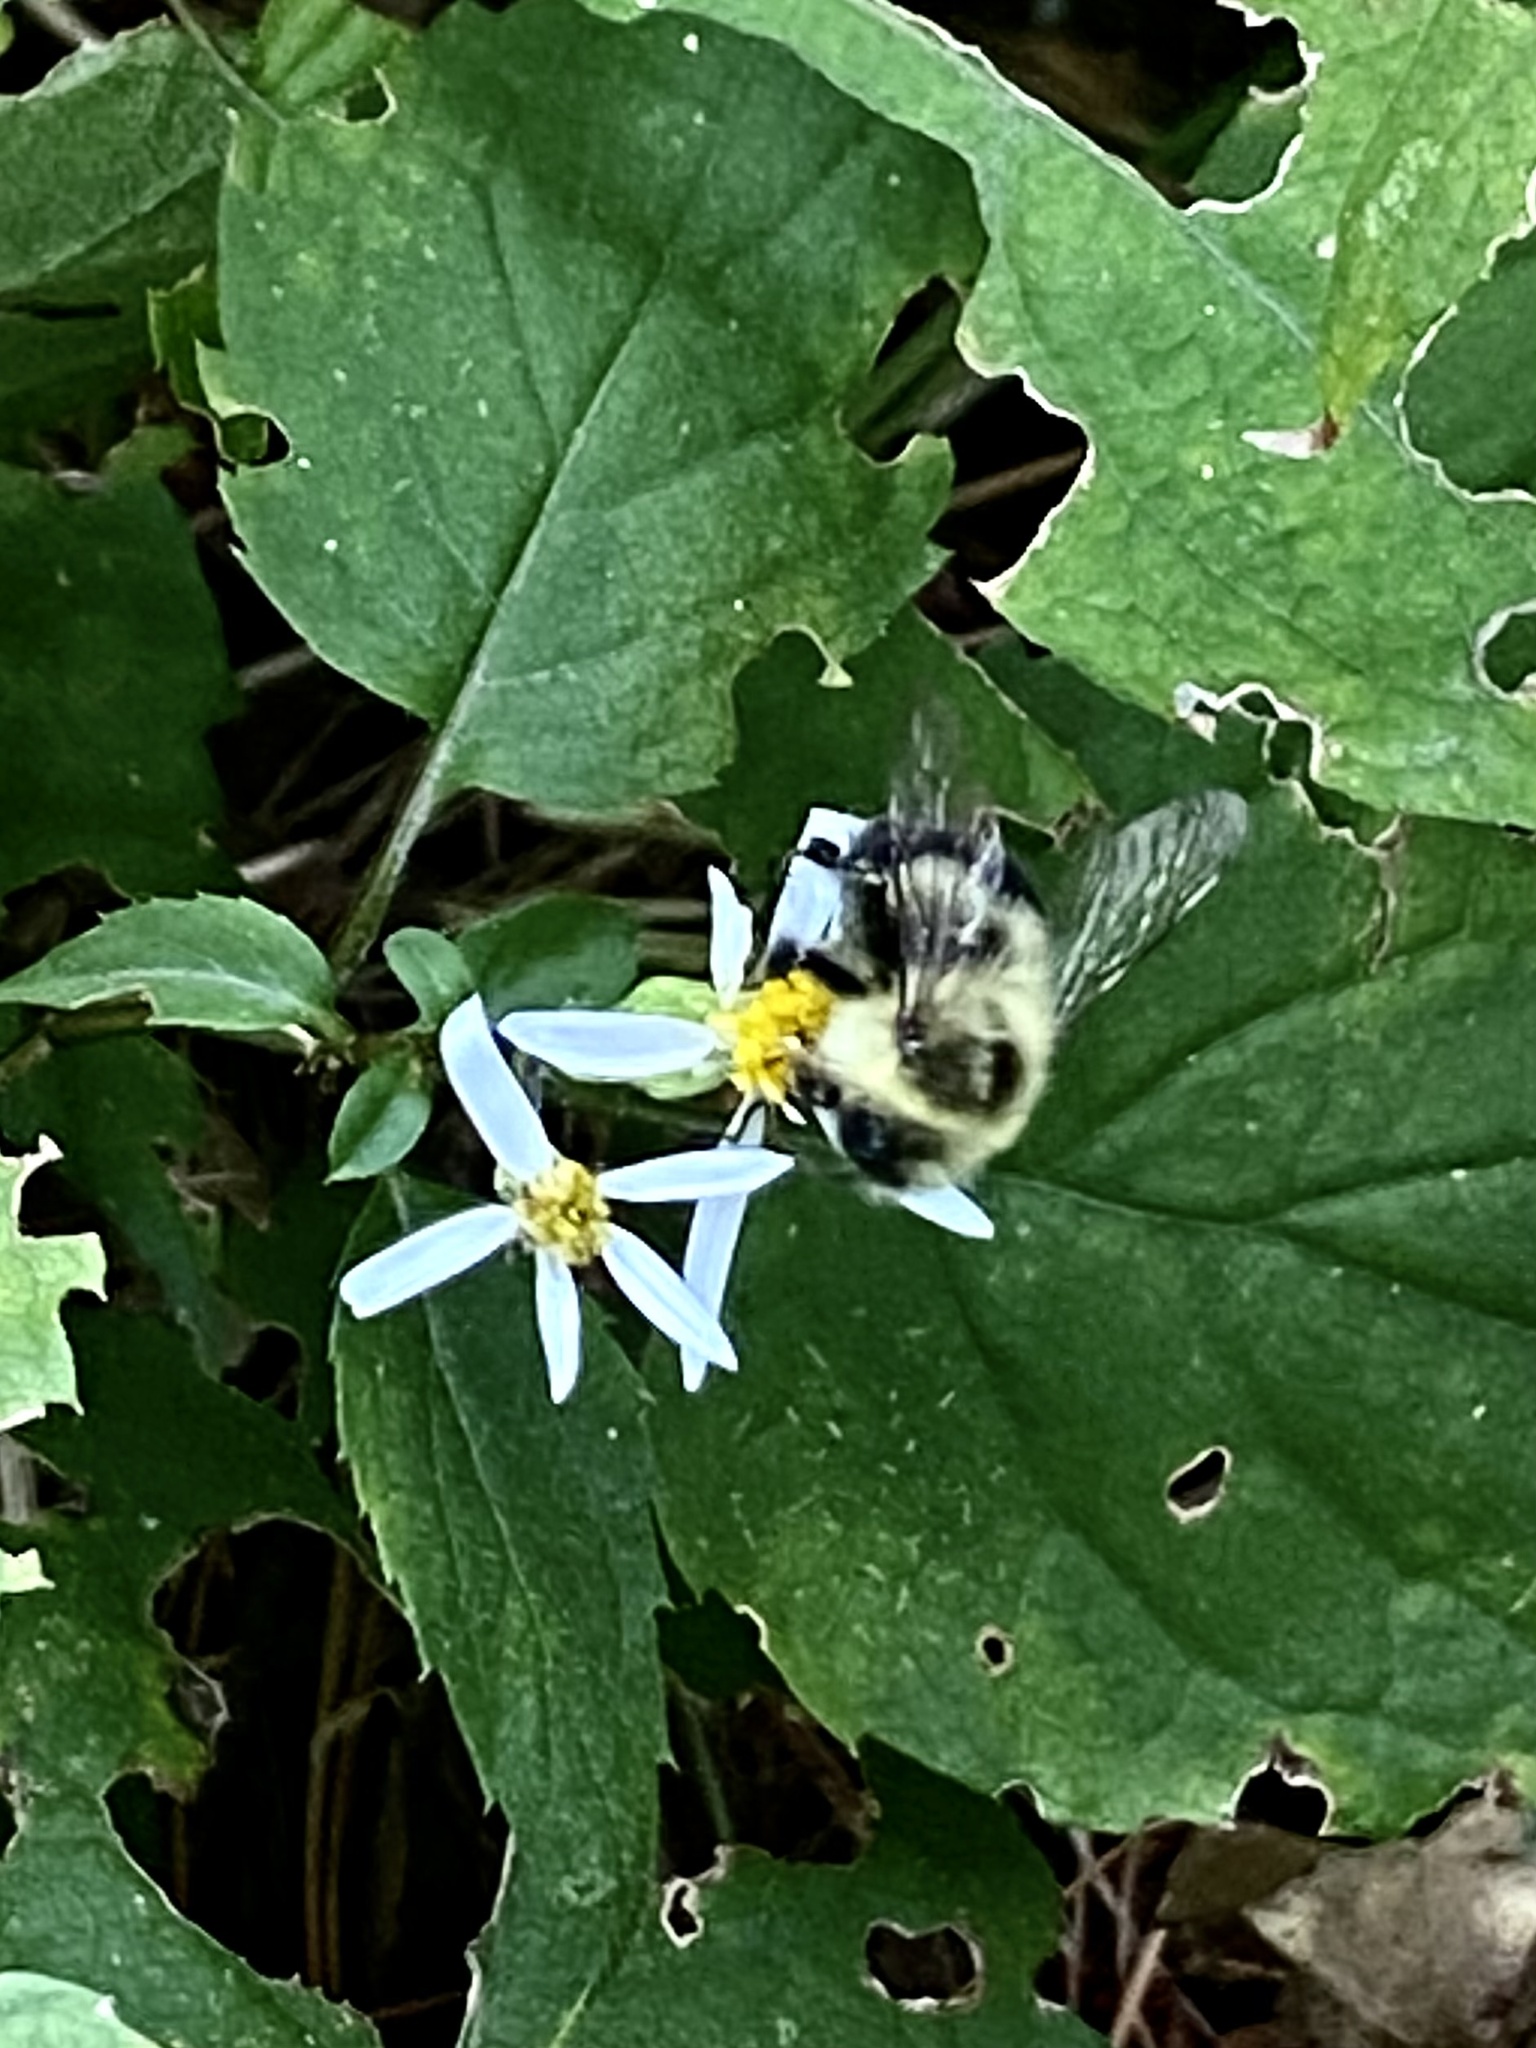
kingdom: Animalia
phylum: Arthropoda
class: Insecta
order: Hymenoptera
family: Apidae
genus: Bombus
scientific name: Bombus impatiens
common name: Common eastern bumble bee
